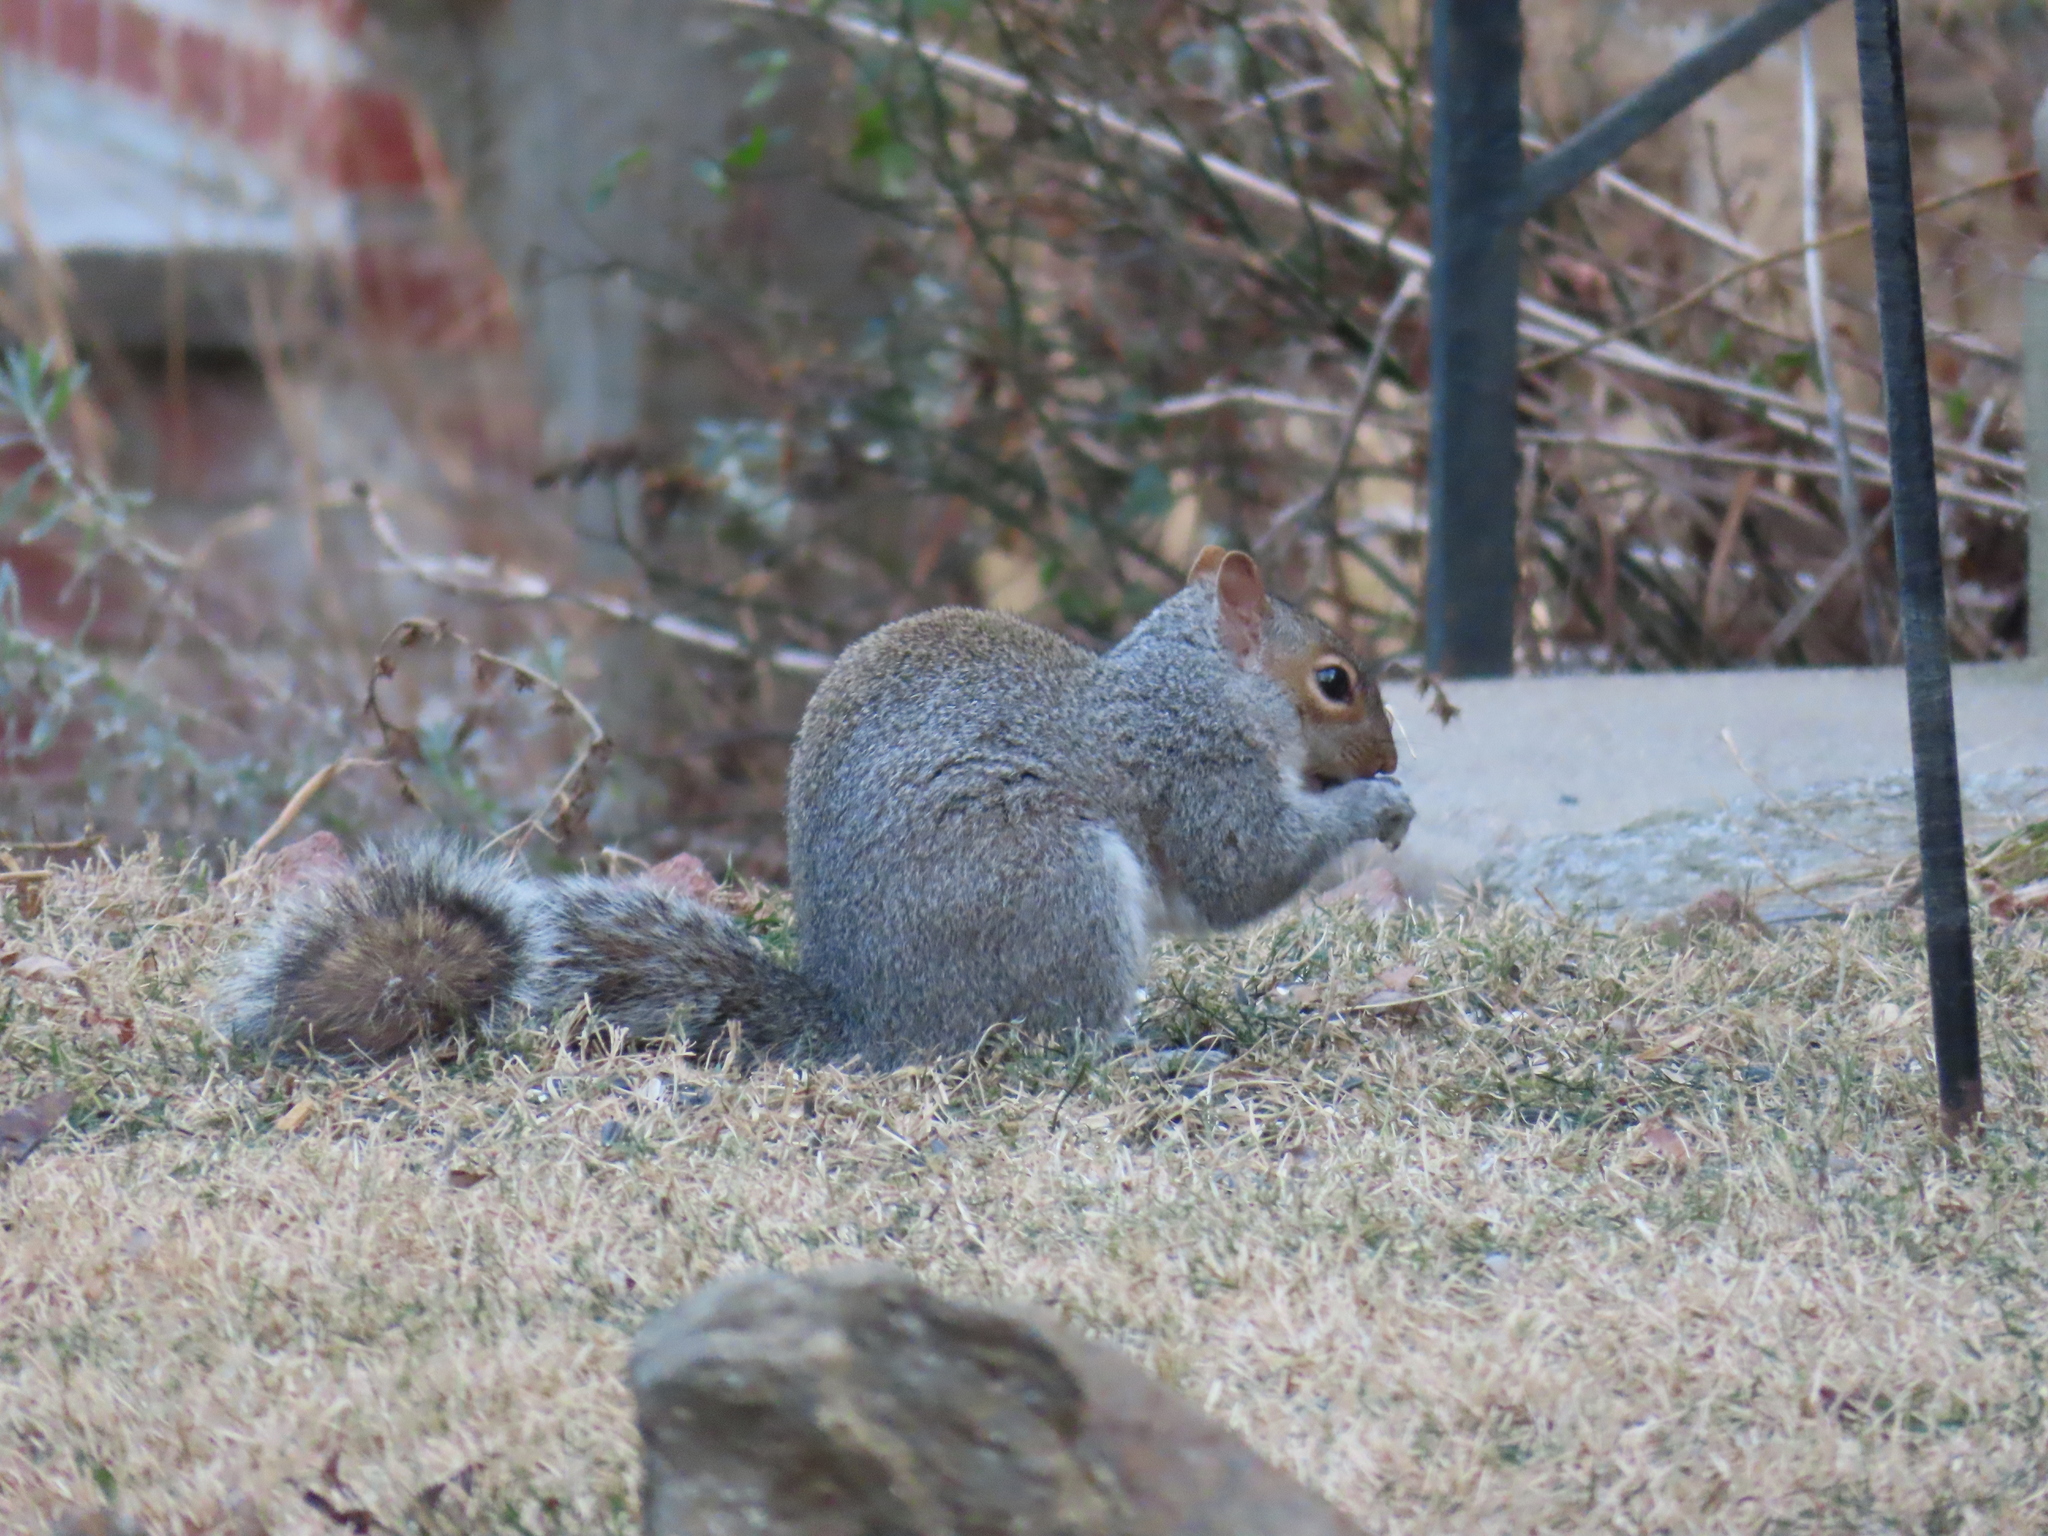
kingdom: Animalia
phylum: Chordata
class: Mammalia
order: Rodentia
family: Sciuridae
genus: Sciurus
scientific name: Sciurus carolinensis
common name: Eastern gray squirrel
